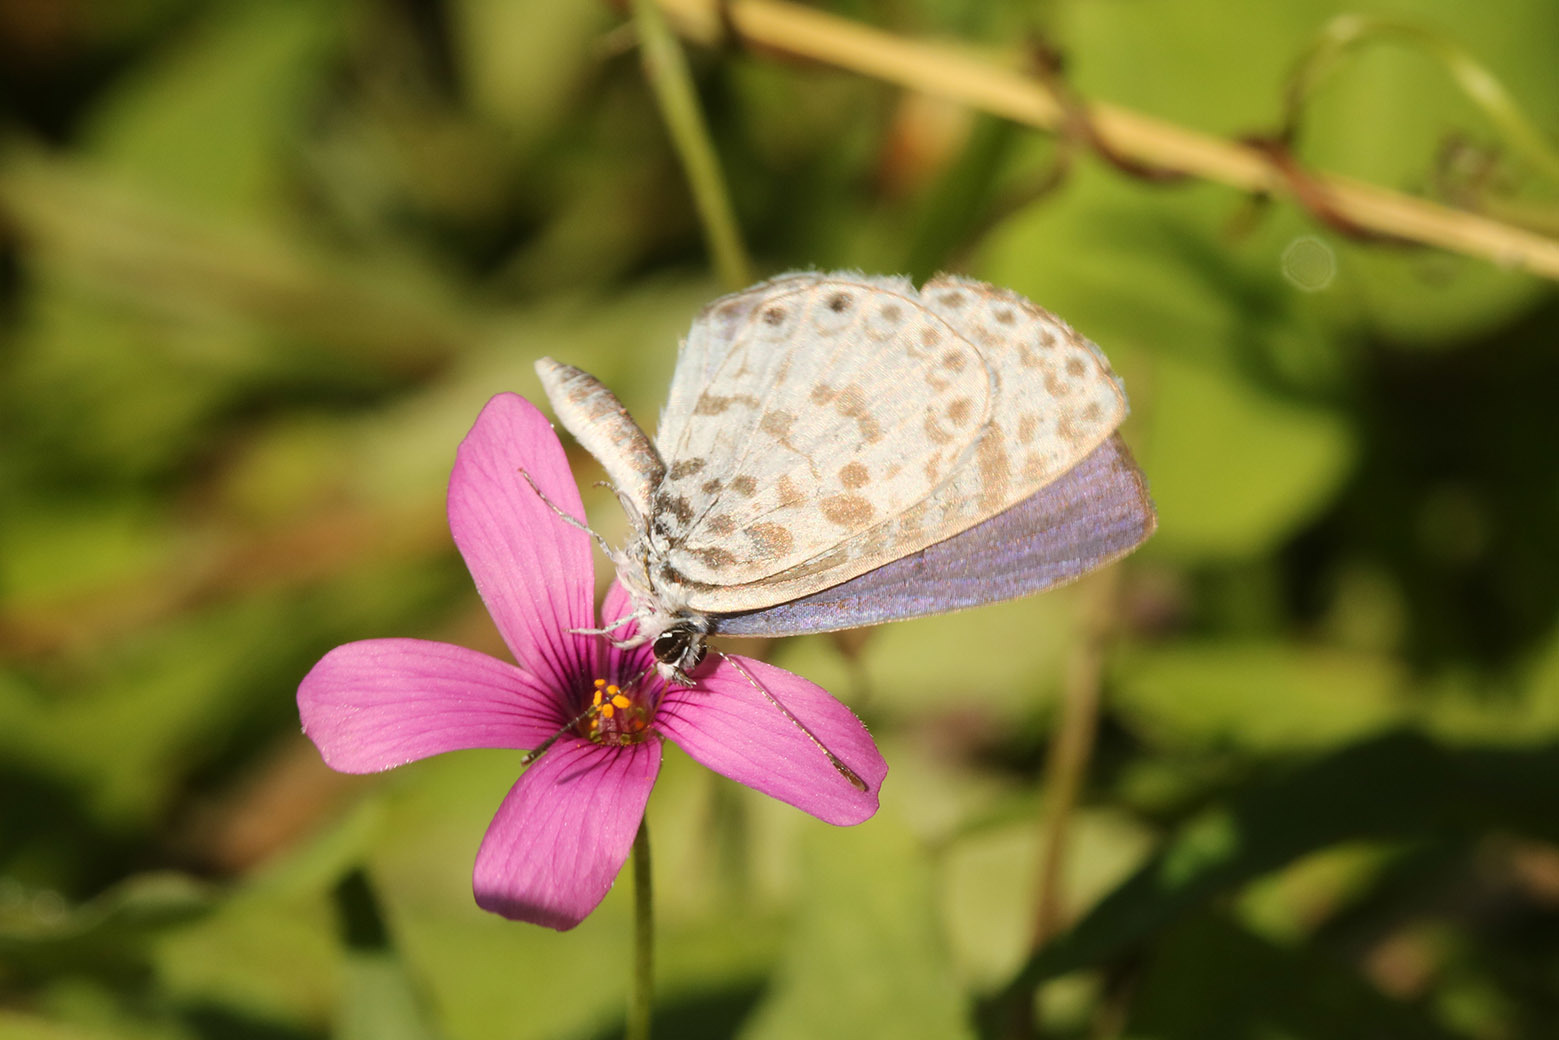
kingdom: Animalia
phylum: Arthropoda
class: Insecta
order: Lepidoptera
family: Lycaenidae
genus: Leptotes
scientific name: Leptotes cassius
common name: Cassius blue
